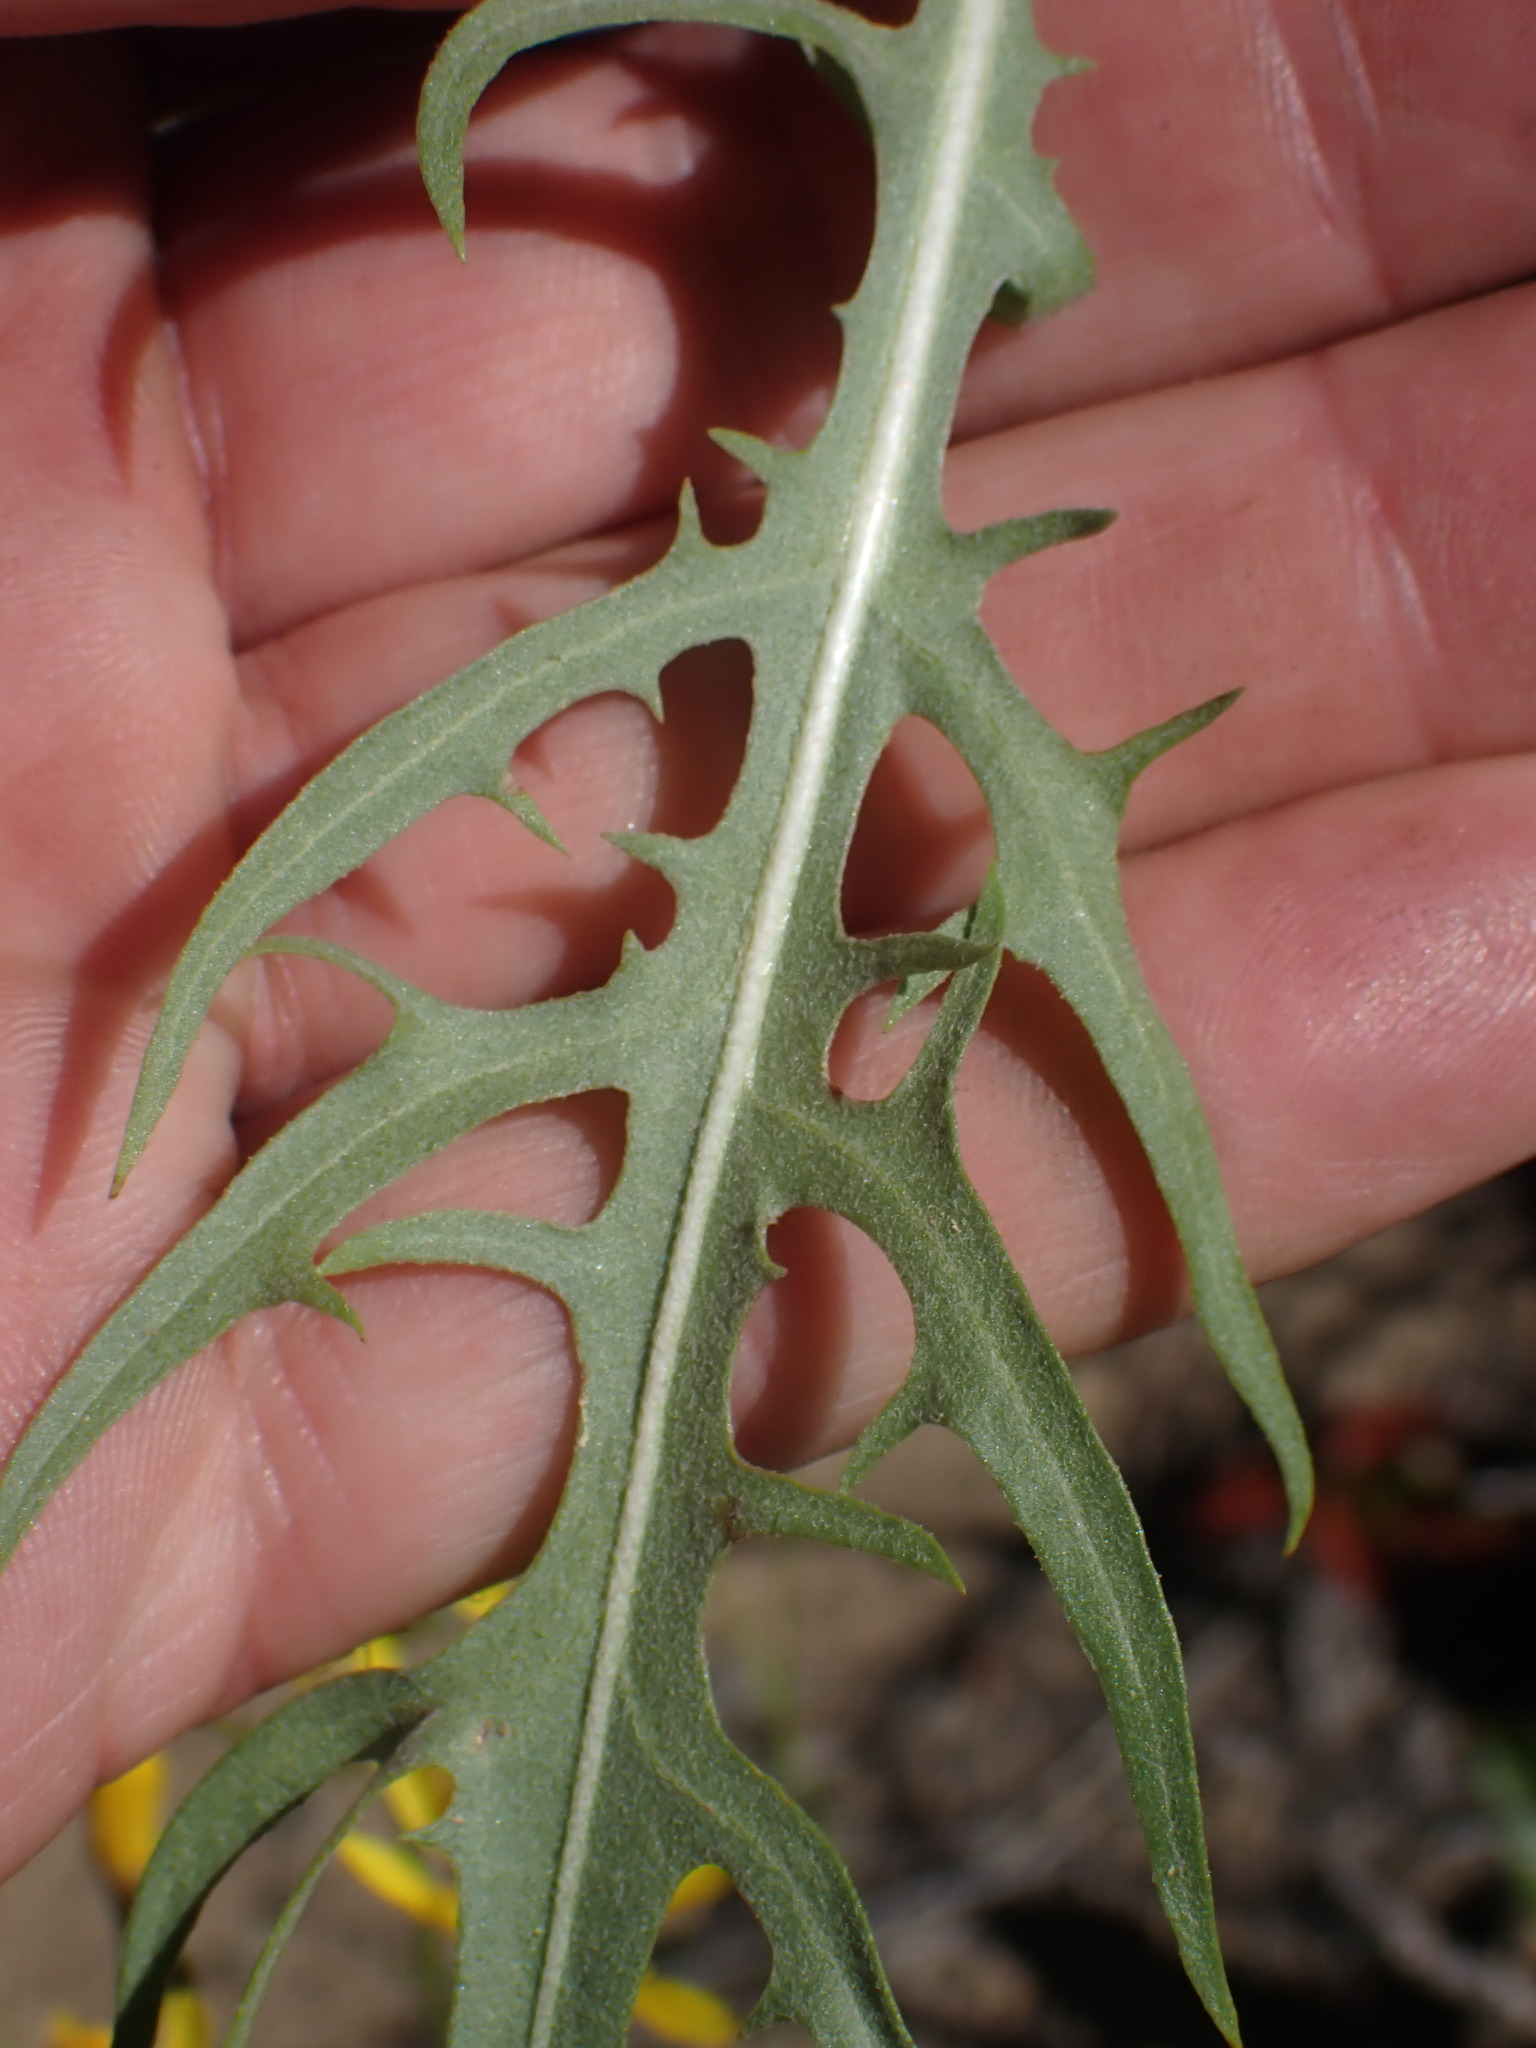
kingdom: Plantae
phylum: Tracheophyta
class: Magnoliopsida
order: Asterales
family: Asteraceae
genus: Crepis
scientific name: Crepis atribarba
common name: Dark hawk's-beard
